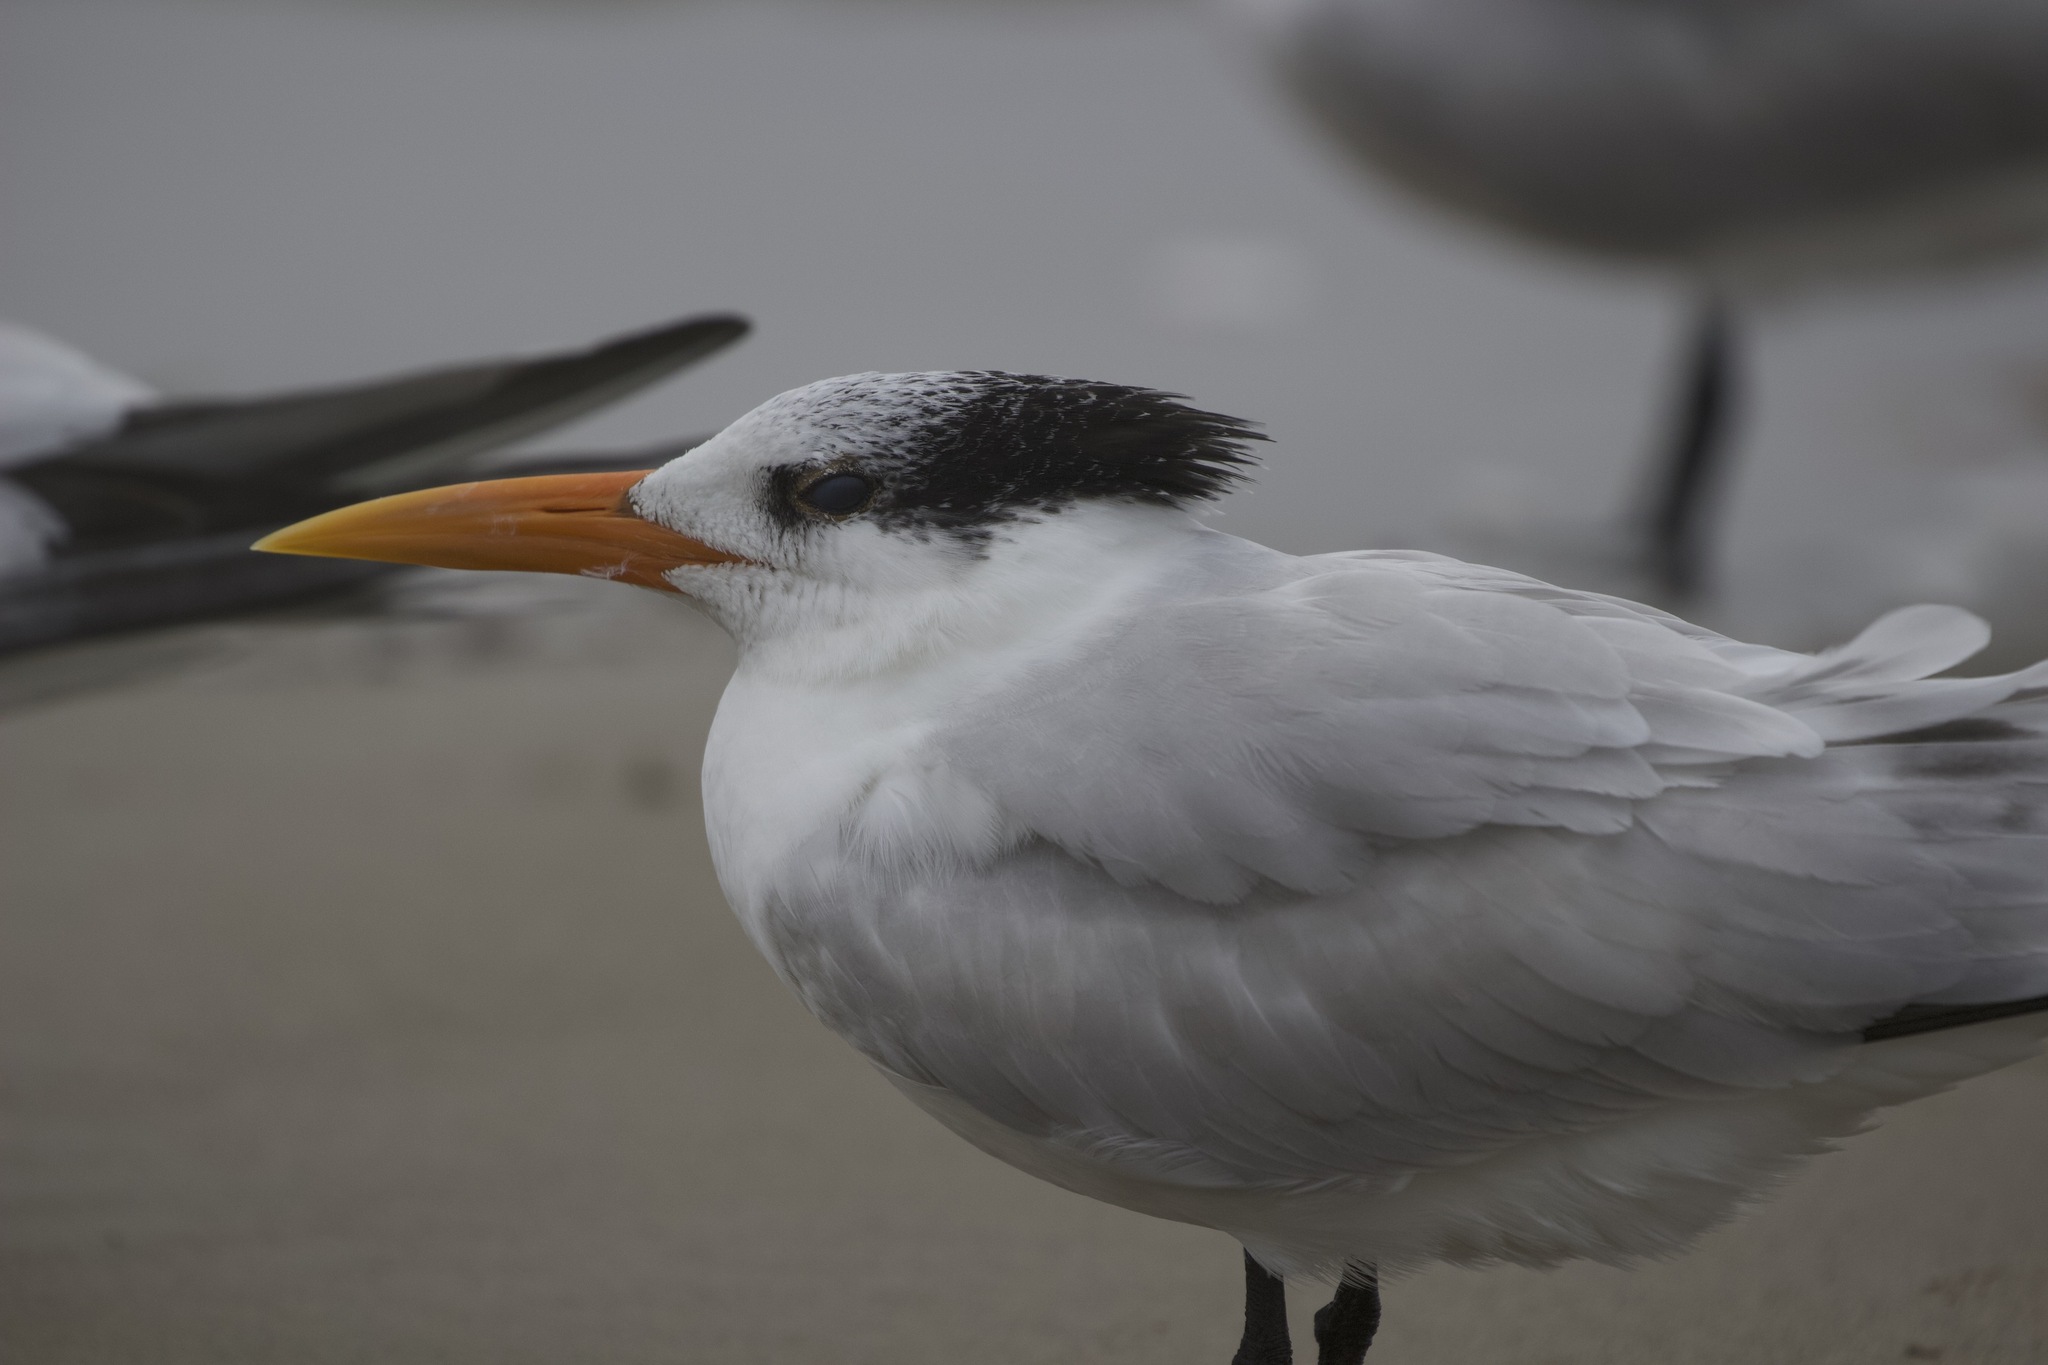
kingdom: Animalia
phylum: Chordata
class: Aves
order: Charadriiformes
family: Laridae
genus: Thalasseus
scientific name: Thalasseus maximus
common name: Royal tern
